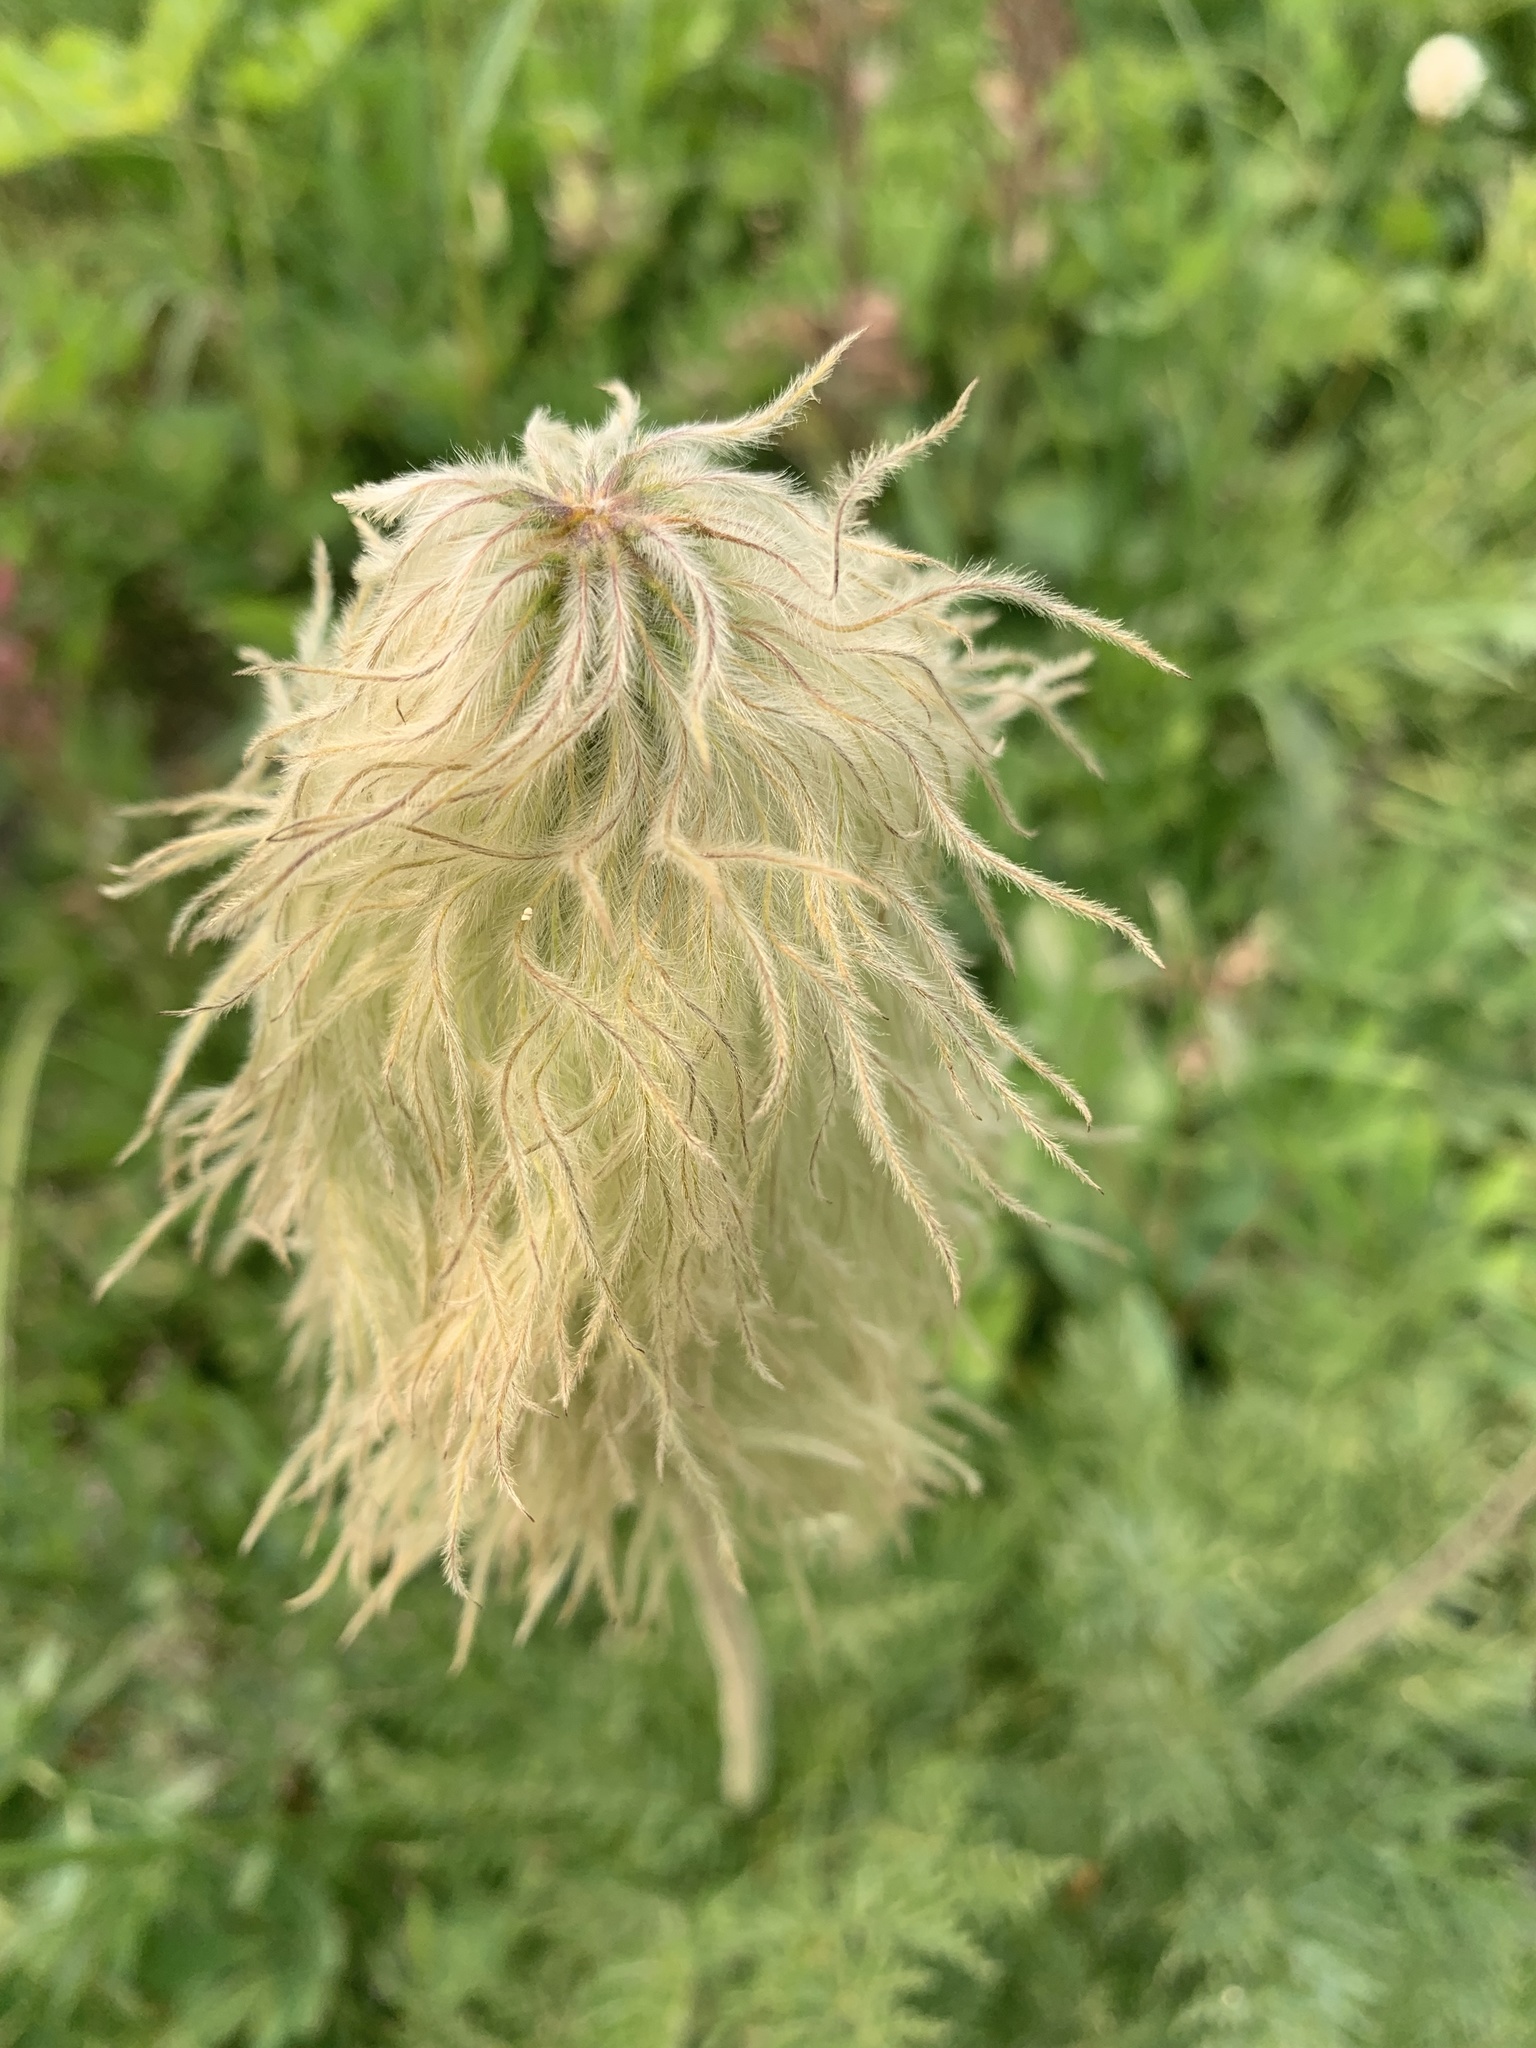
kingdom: Plantae
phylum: Tracheophyta
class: Magnoliopsida
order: Ranunculales
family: Ranunculaceae
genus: Pulsatilla
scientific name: Pulsatilla occidentalis
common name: Mountain pasqueflower
